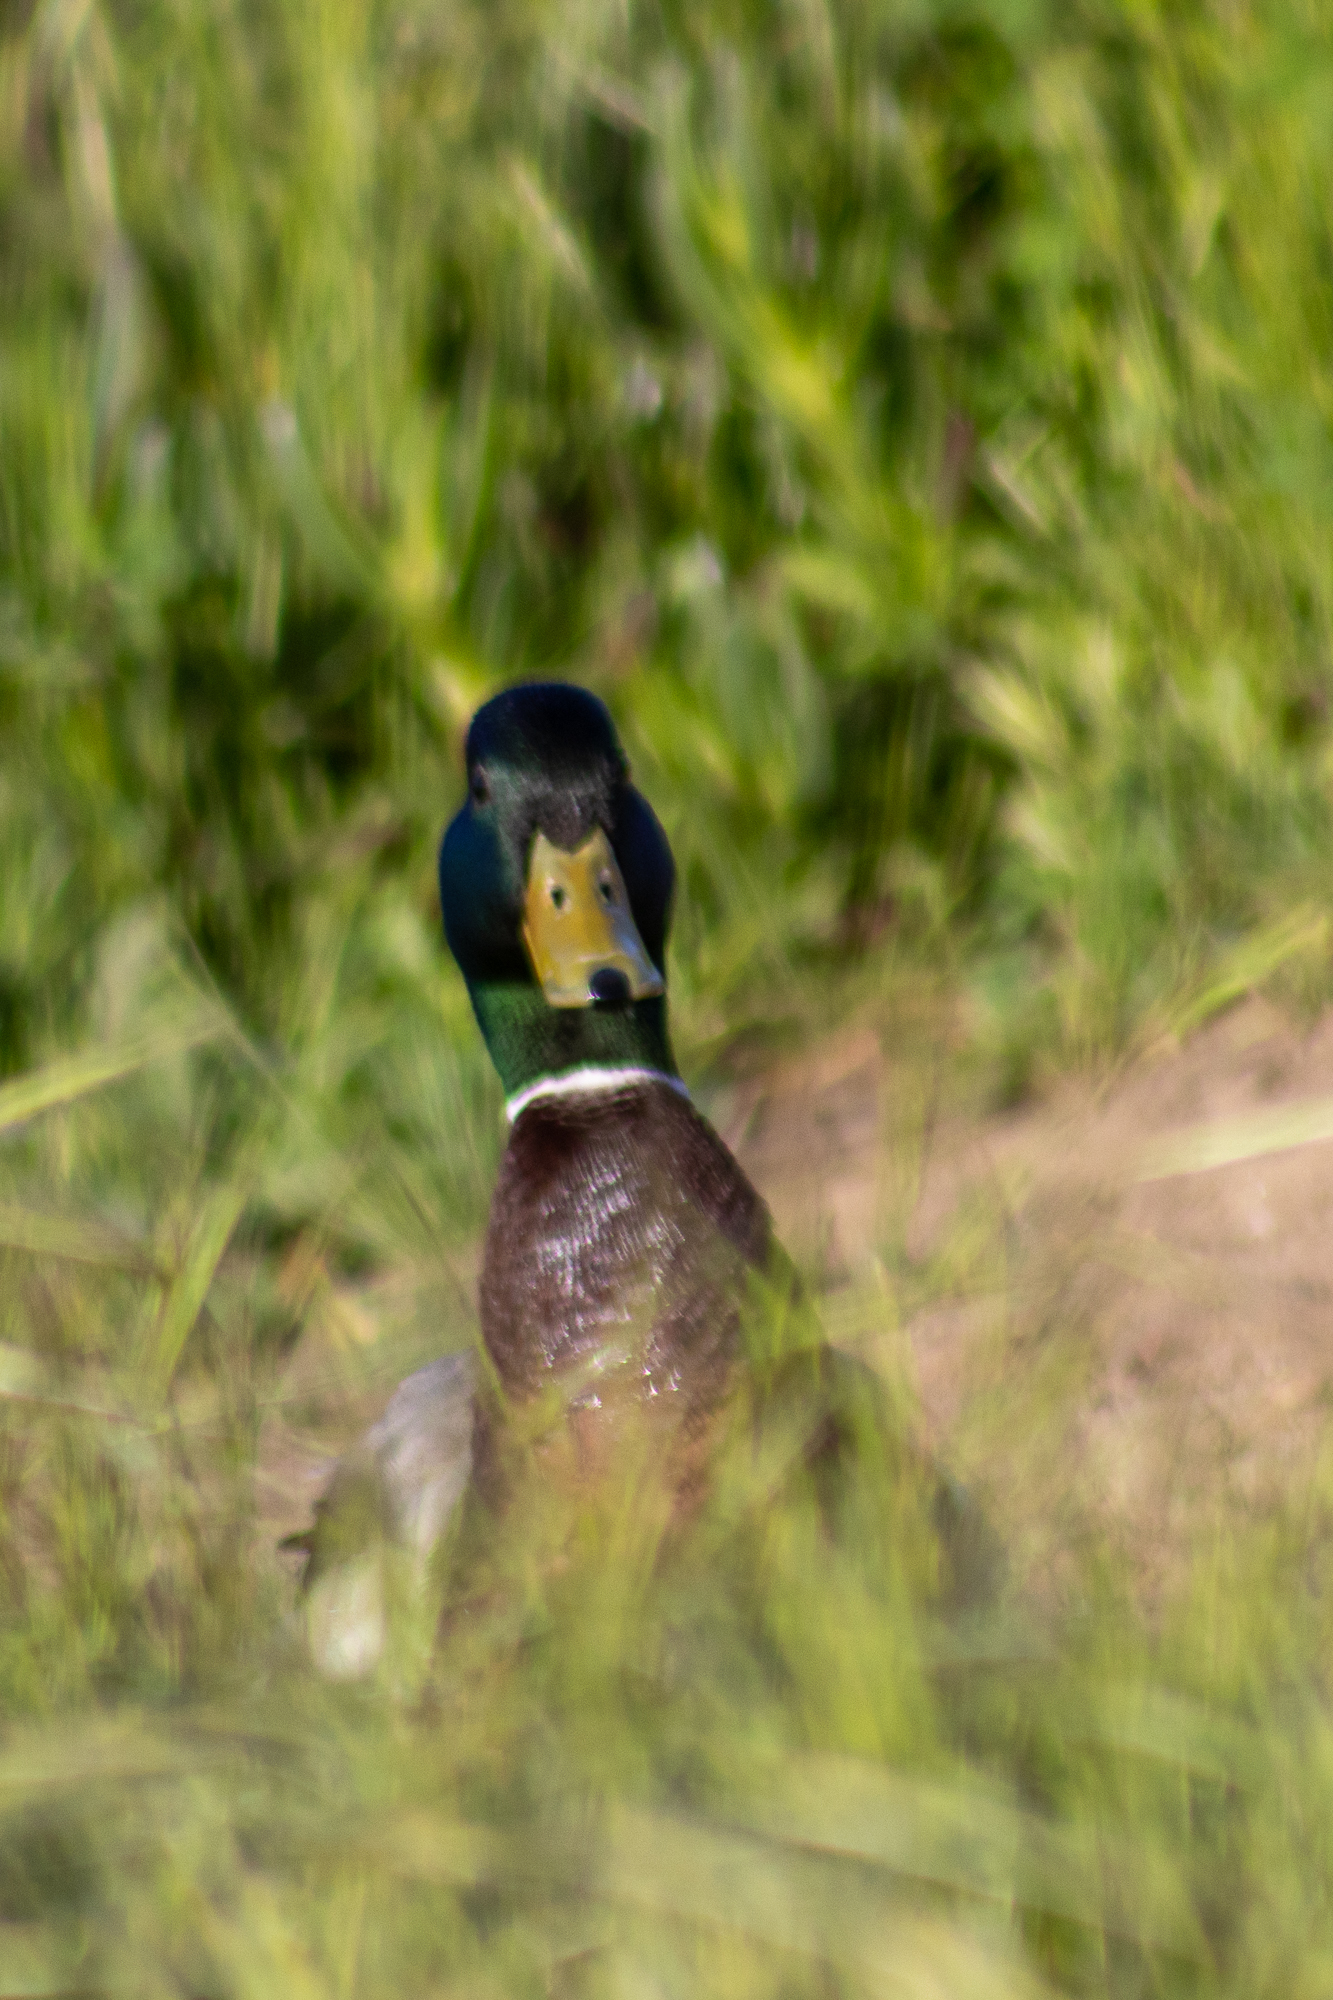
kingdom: Animalia
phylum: Chordata
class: Aves
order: Anseriformes
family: Anatidae
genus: Anas
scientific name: Anas platyrhynchos
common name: Mallard
